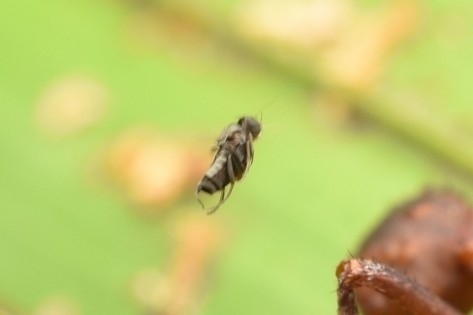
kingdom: Animalia
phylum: Arthropoda
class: Insecta
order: Diptera
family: Phoridae
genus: Myrmosicarius
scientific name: Myrmosicarius
